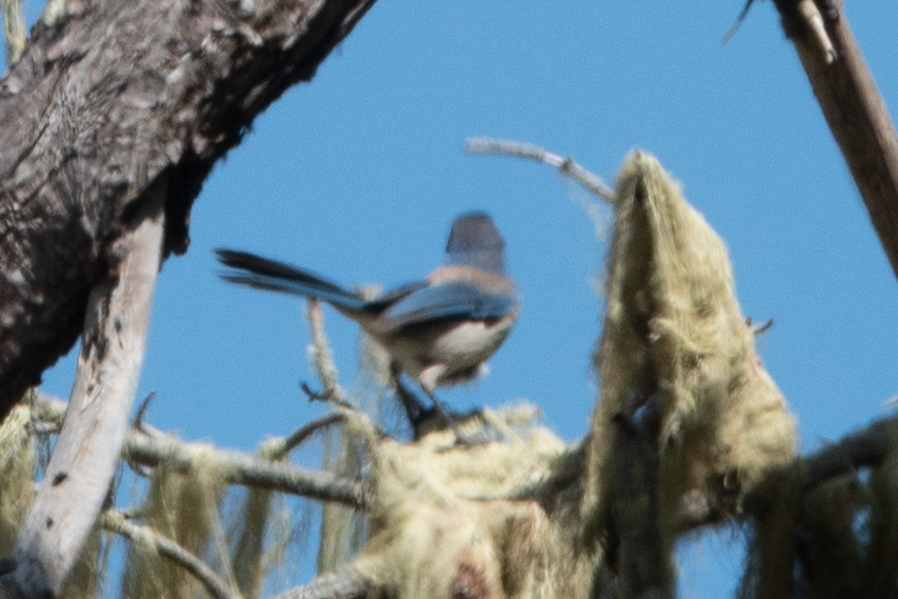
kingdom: Animalia
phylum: Chordata
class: Aves
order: Passeriformes
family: Corvidae
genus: Aphelocoma
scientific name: Aphelocoma californica
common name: California scrub-jay
